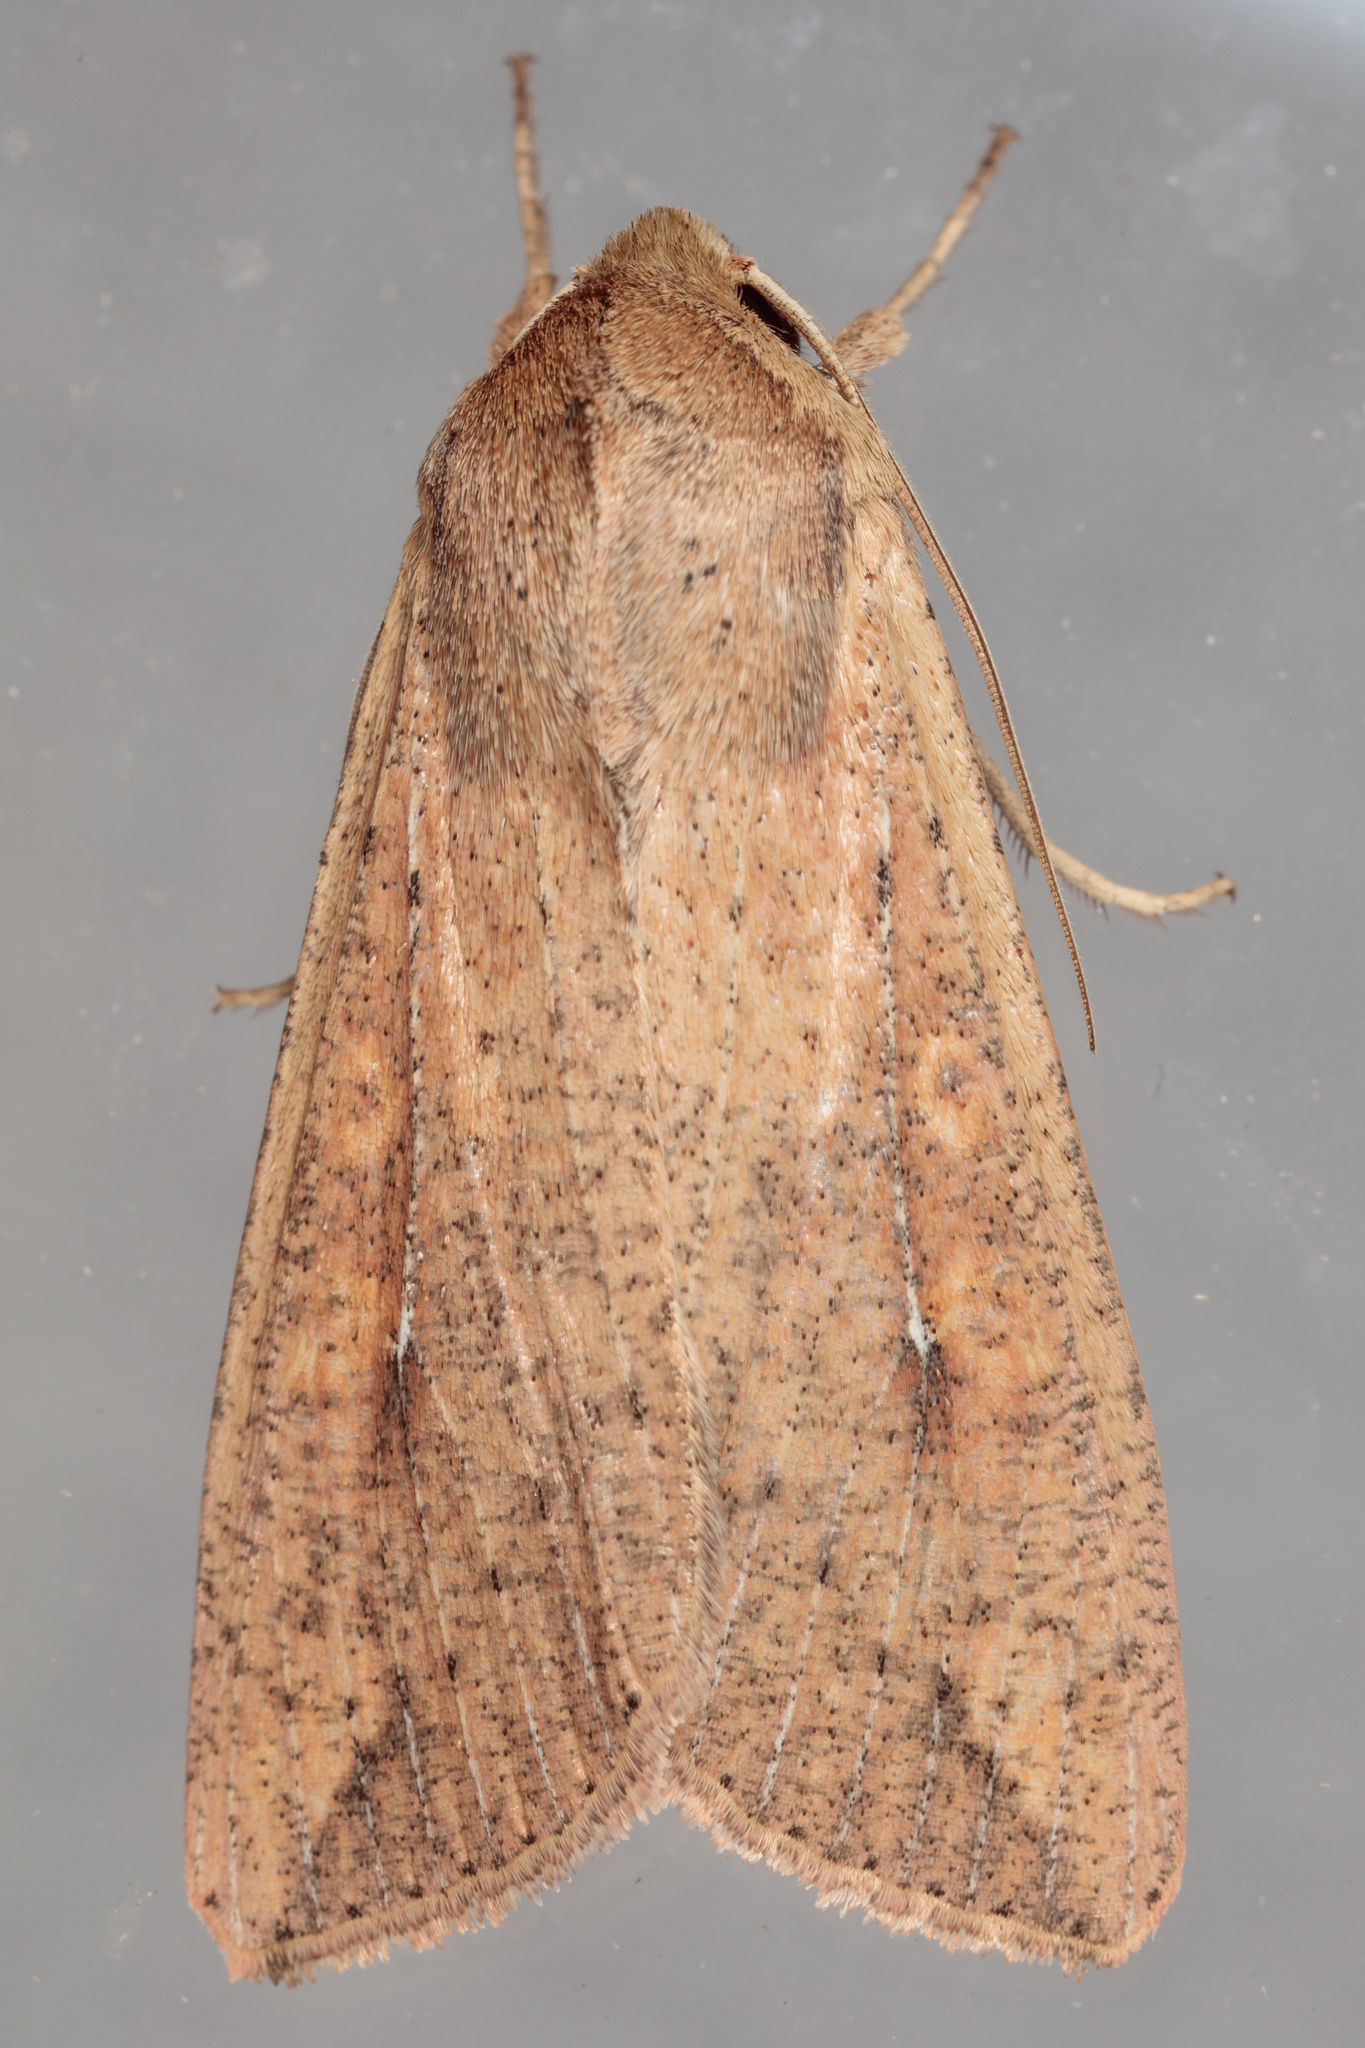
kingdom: Animalia
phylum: Arthropoda
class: Insecta
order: Lepidoptera
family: Noctuidae
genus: Mythimna
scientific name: Mythimna unipuncta
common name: White-speck
